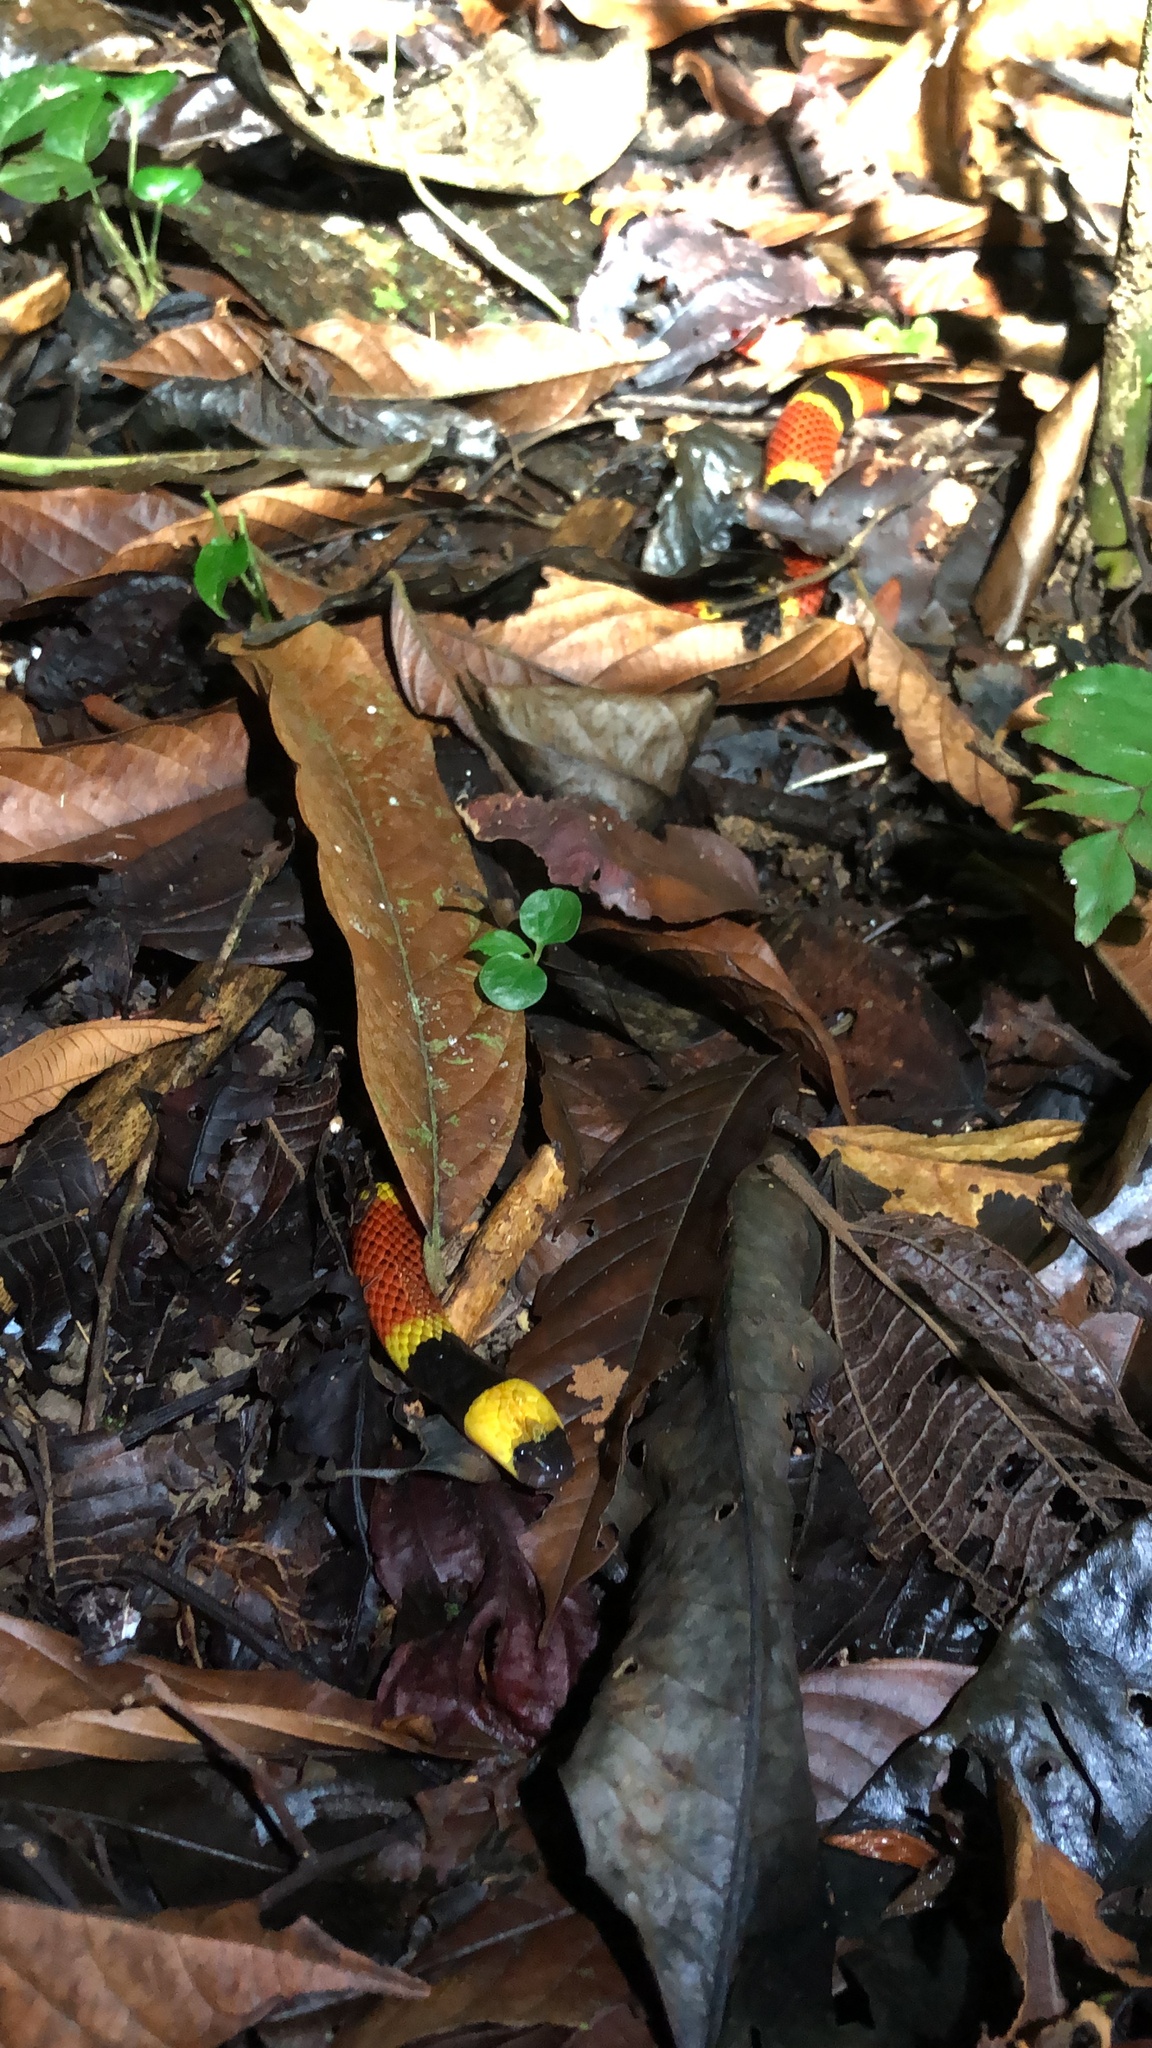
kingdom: Animalia
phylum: Chordata
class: Squamata
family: Elapidae
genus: Micrurus
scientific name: Micrurus mosquitensis
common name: Misquito coral snake
